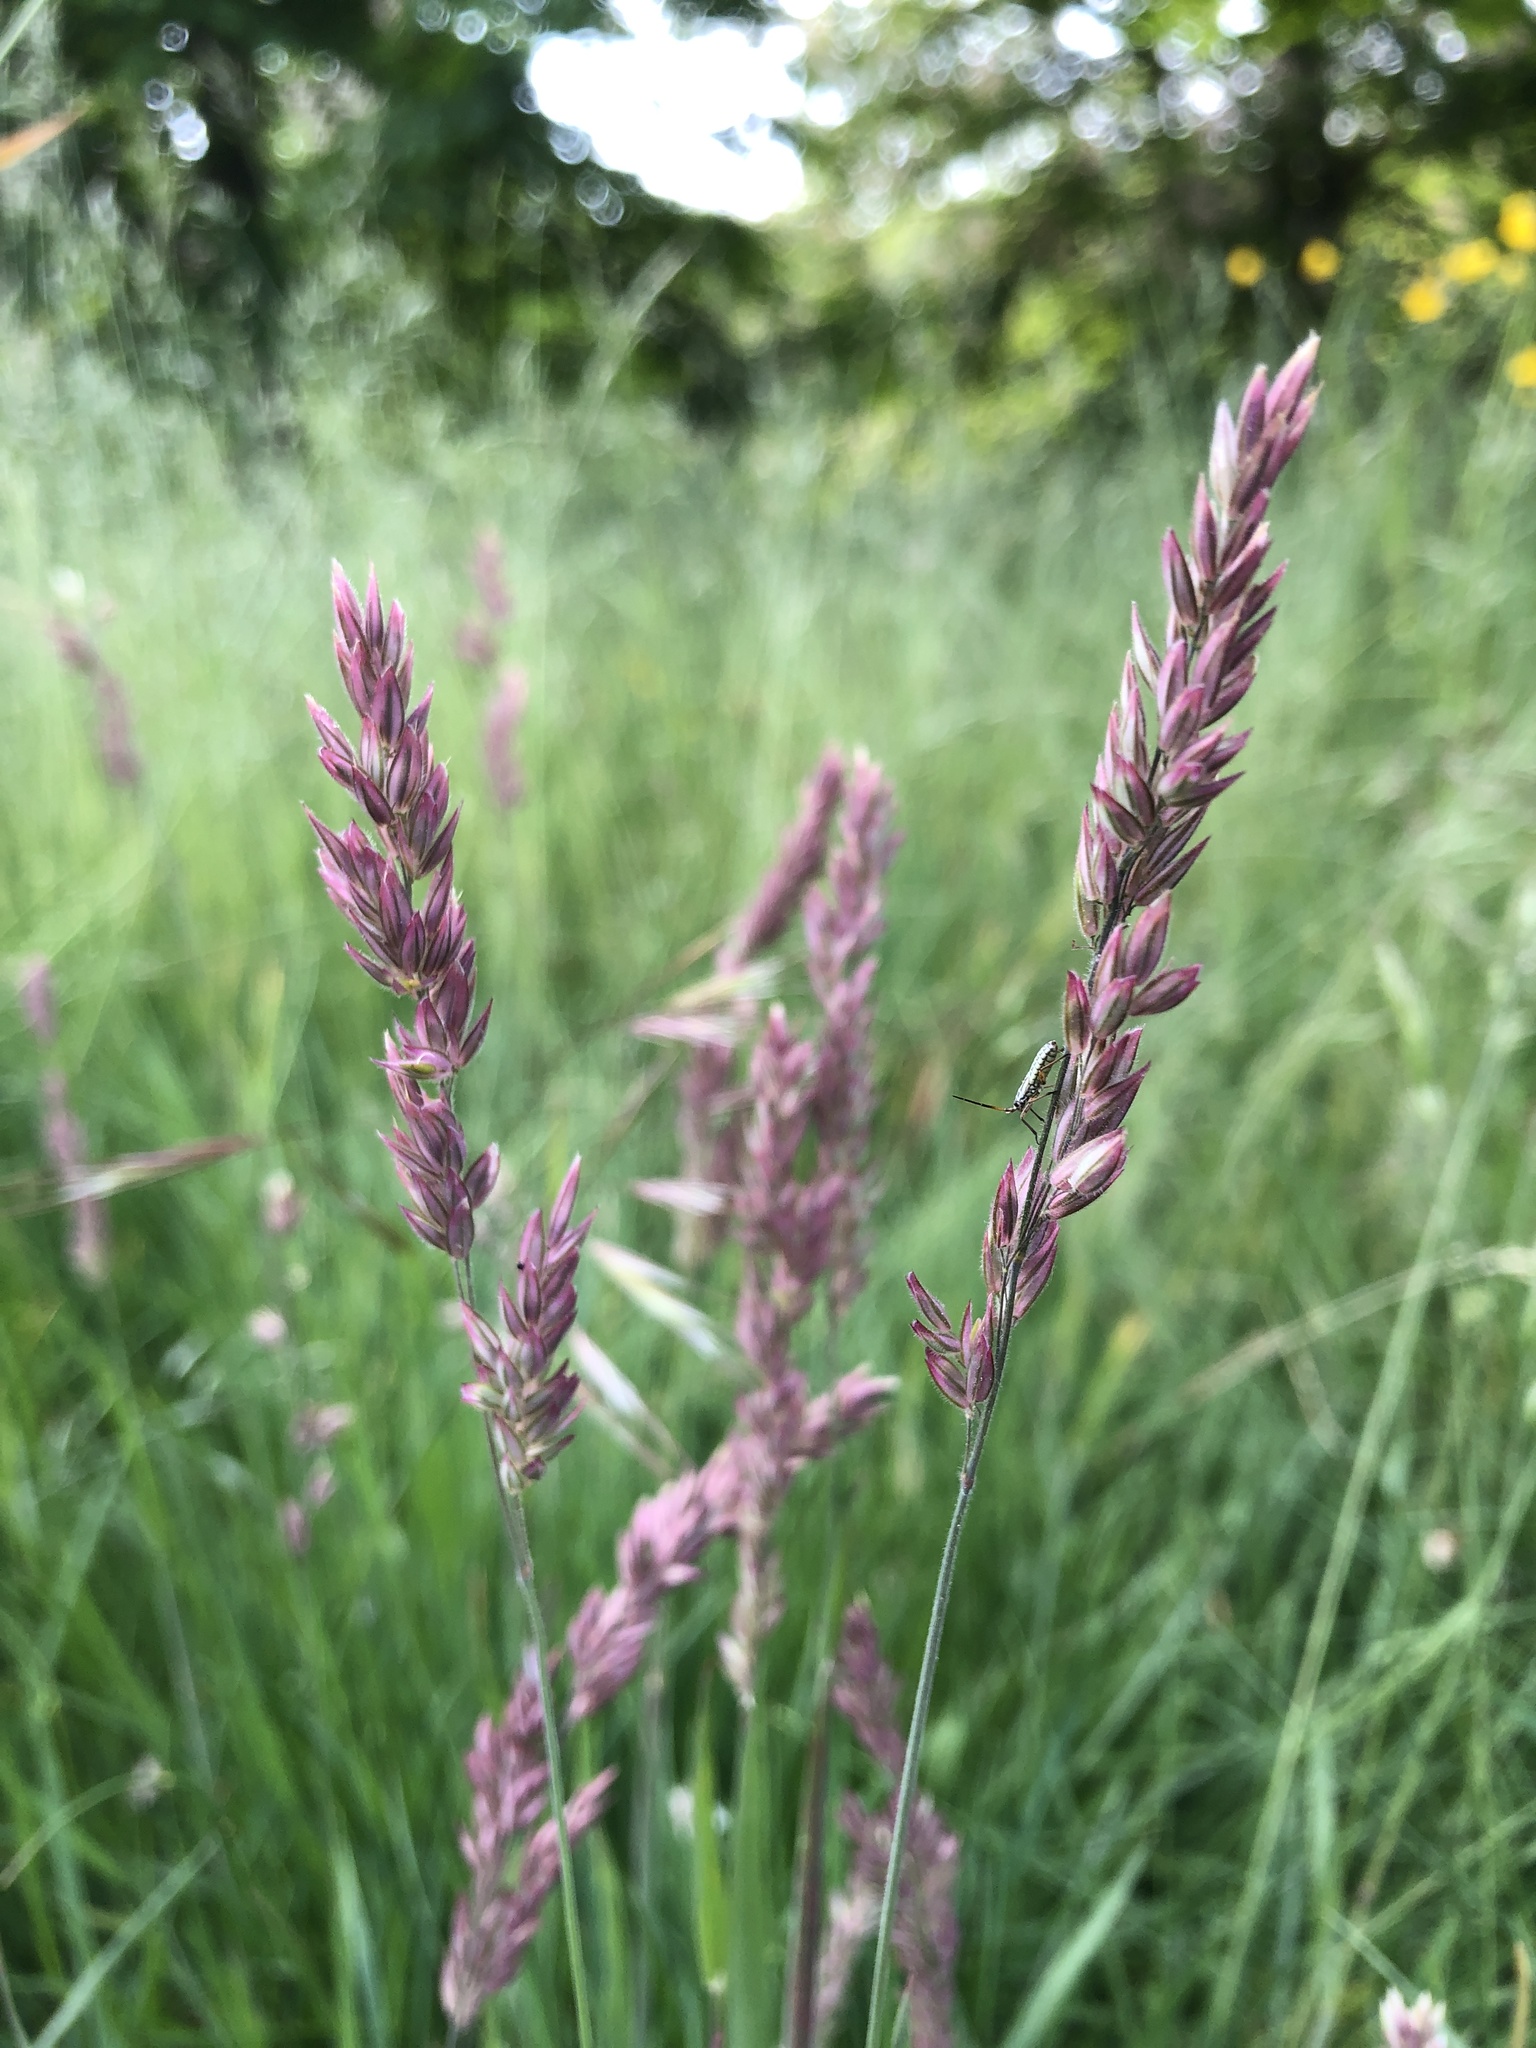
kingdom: Plantae
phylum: Tracheophyta
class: Liliopsida
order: Poales
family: Poaceae
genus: Holcus
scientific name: Holcus lanatus
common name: Yorkshire-fog
